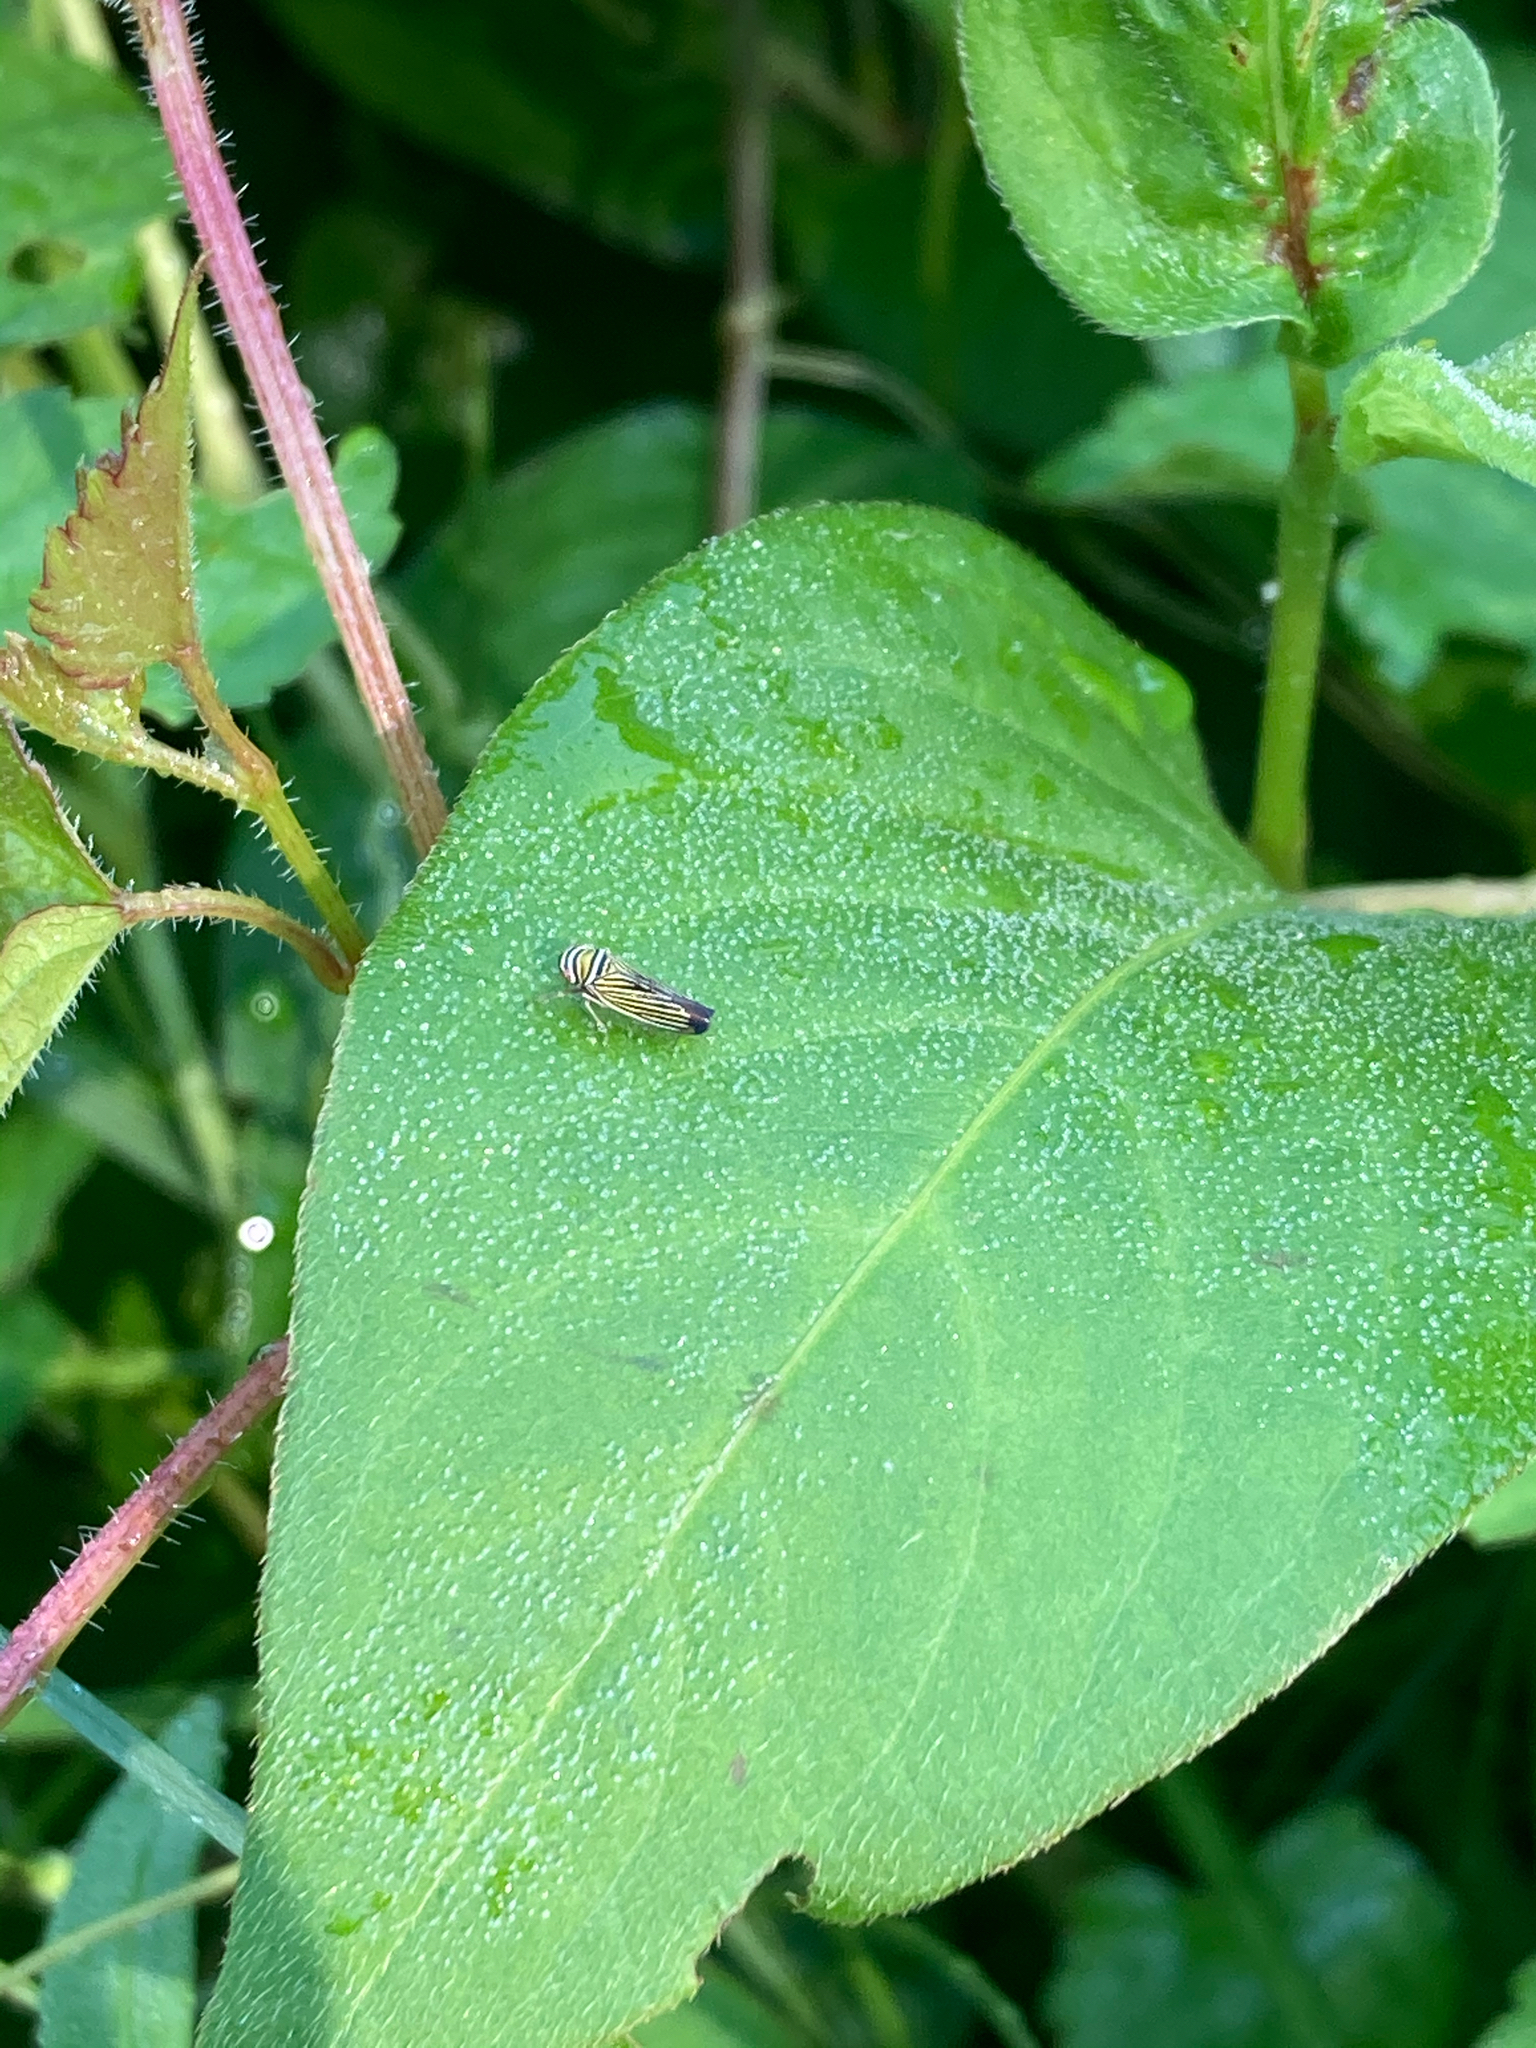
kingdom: Animalia
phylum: Arthropoda
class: Insecta
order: Hemiptera
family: Cicadellidae
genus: Tylozygus
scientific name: Tylozygus bifidus
